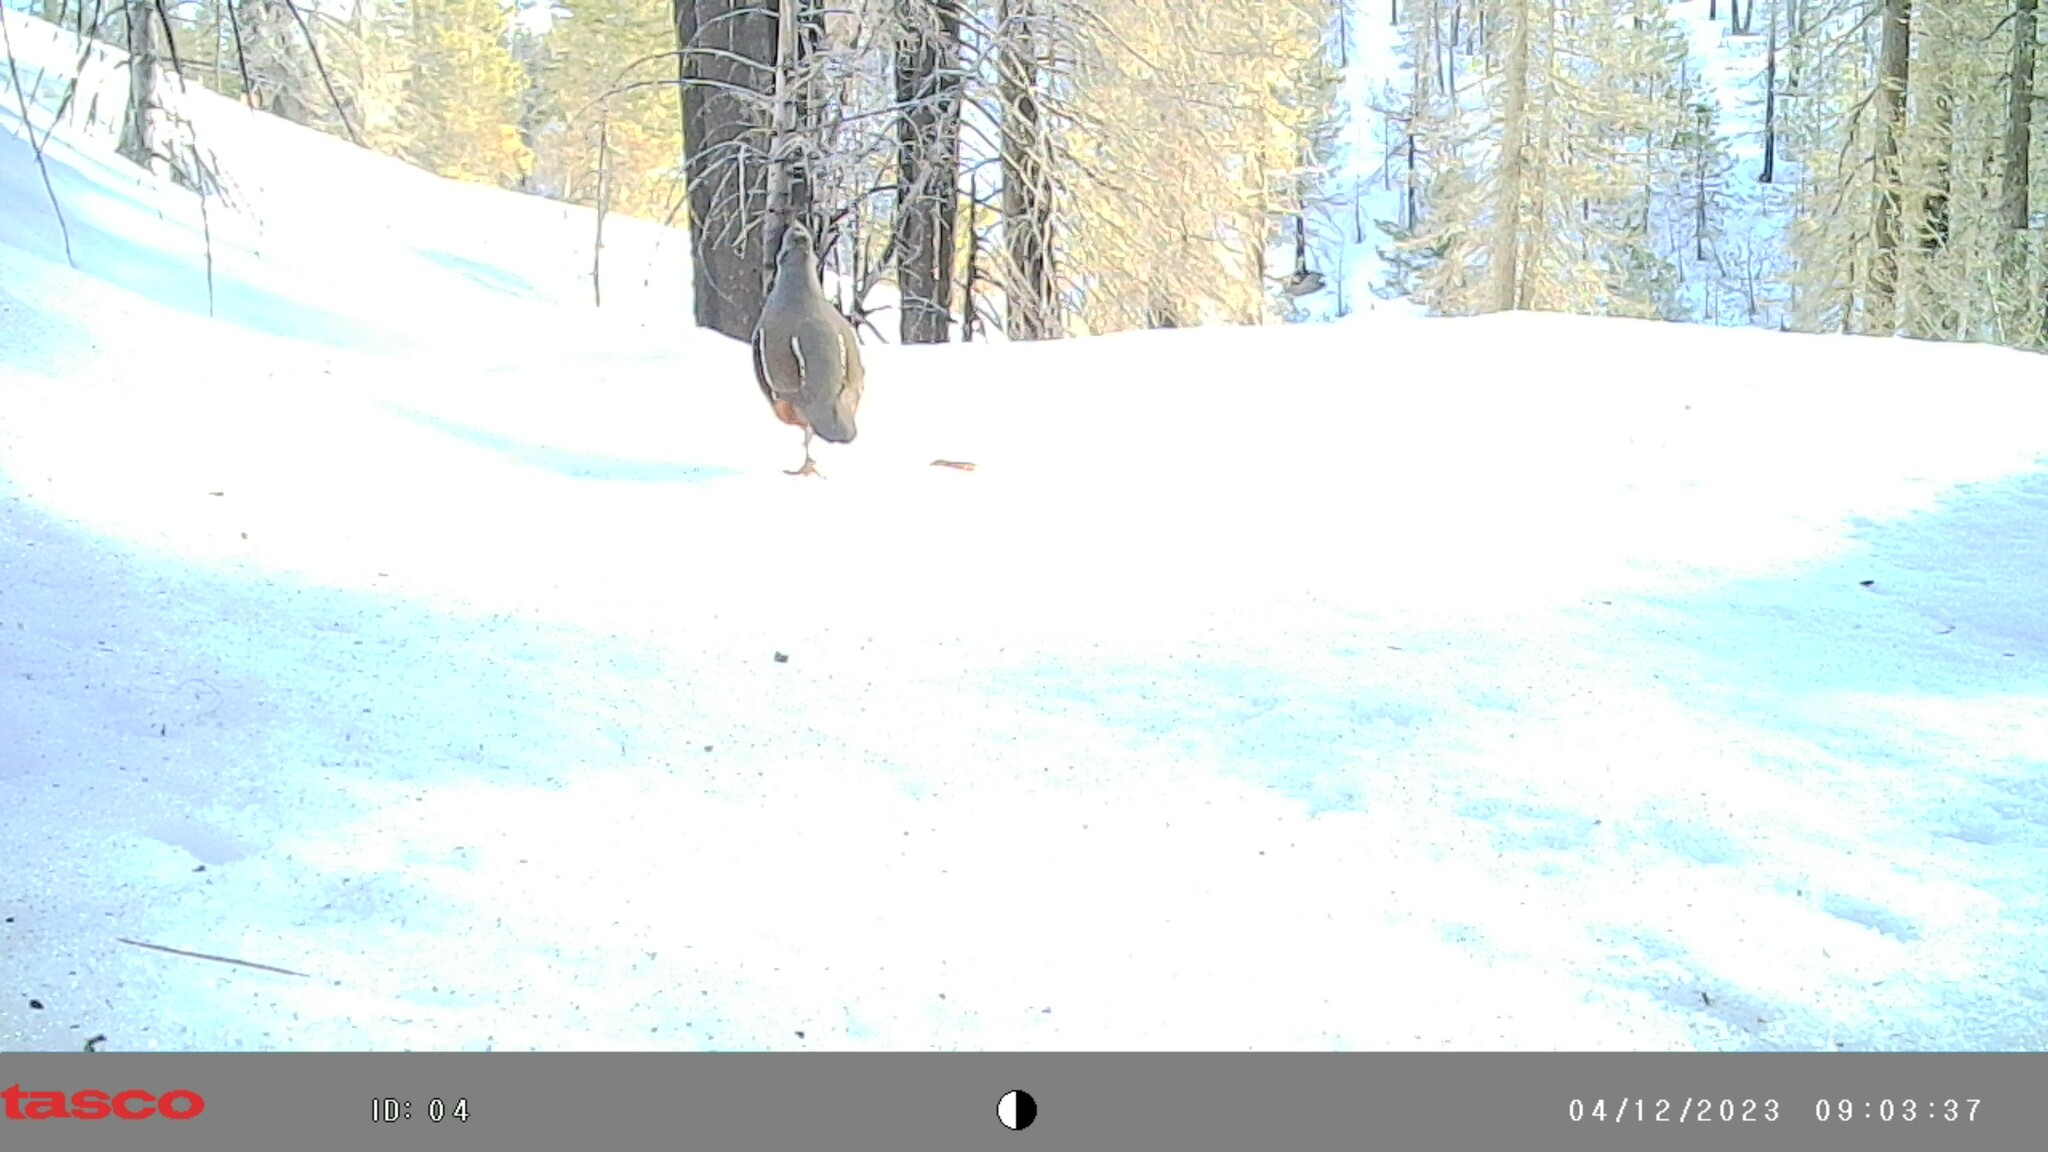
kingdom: Animalia
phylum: Chordata
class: Aves
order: Galliformes
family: Odontophoridae
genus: Oreortyx
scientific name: Oreortyx pictus
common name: Mountain quail
